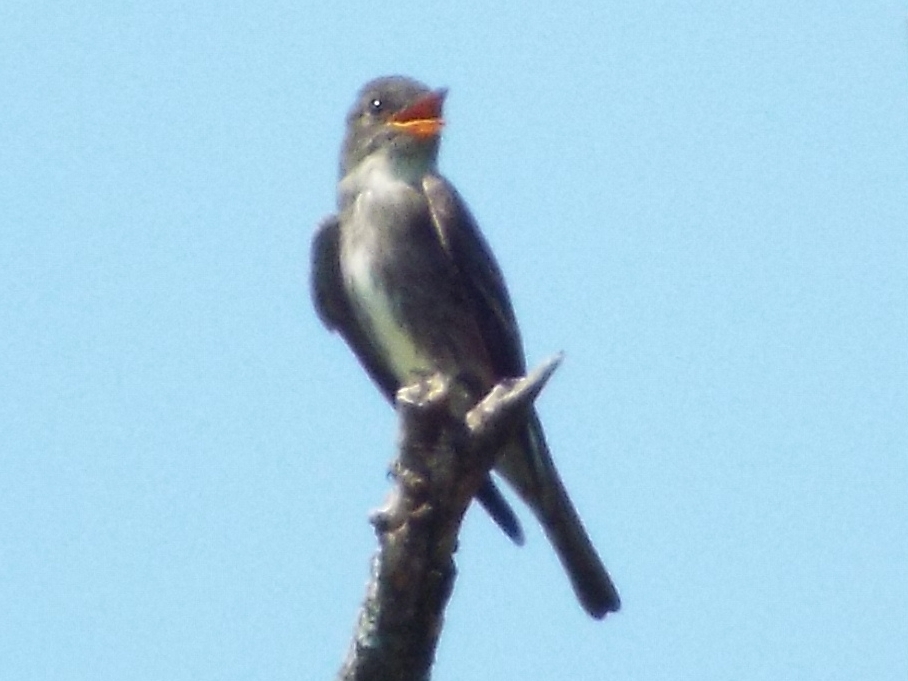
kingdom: Animalia
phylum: Chordata
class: Aves
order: Passeriformes
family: Tyrannidae
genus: Contopus
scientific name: Contopus cooperi
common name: Olive-sided flycatcher
